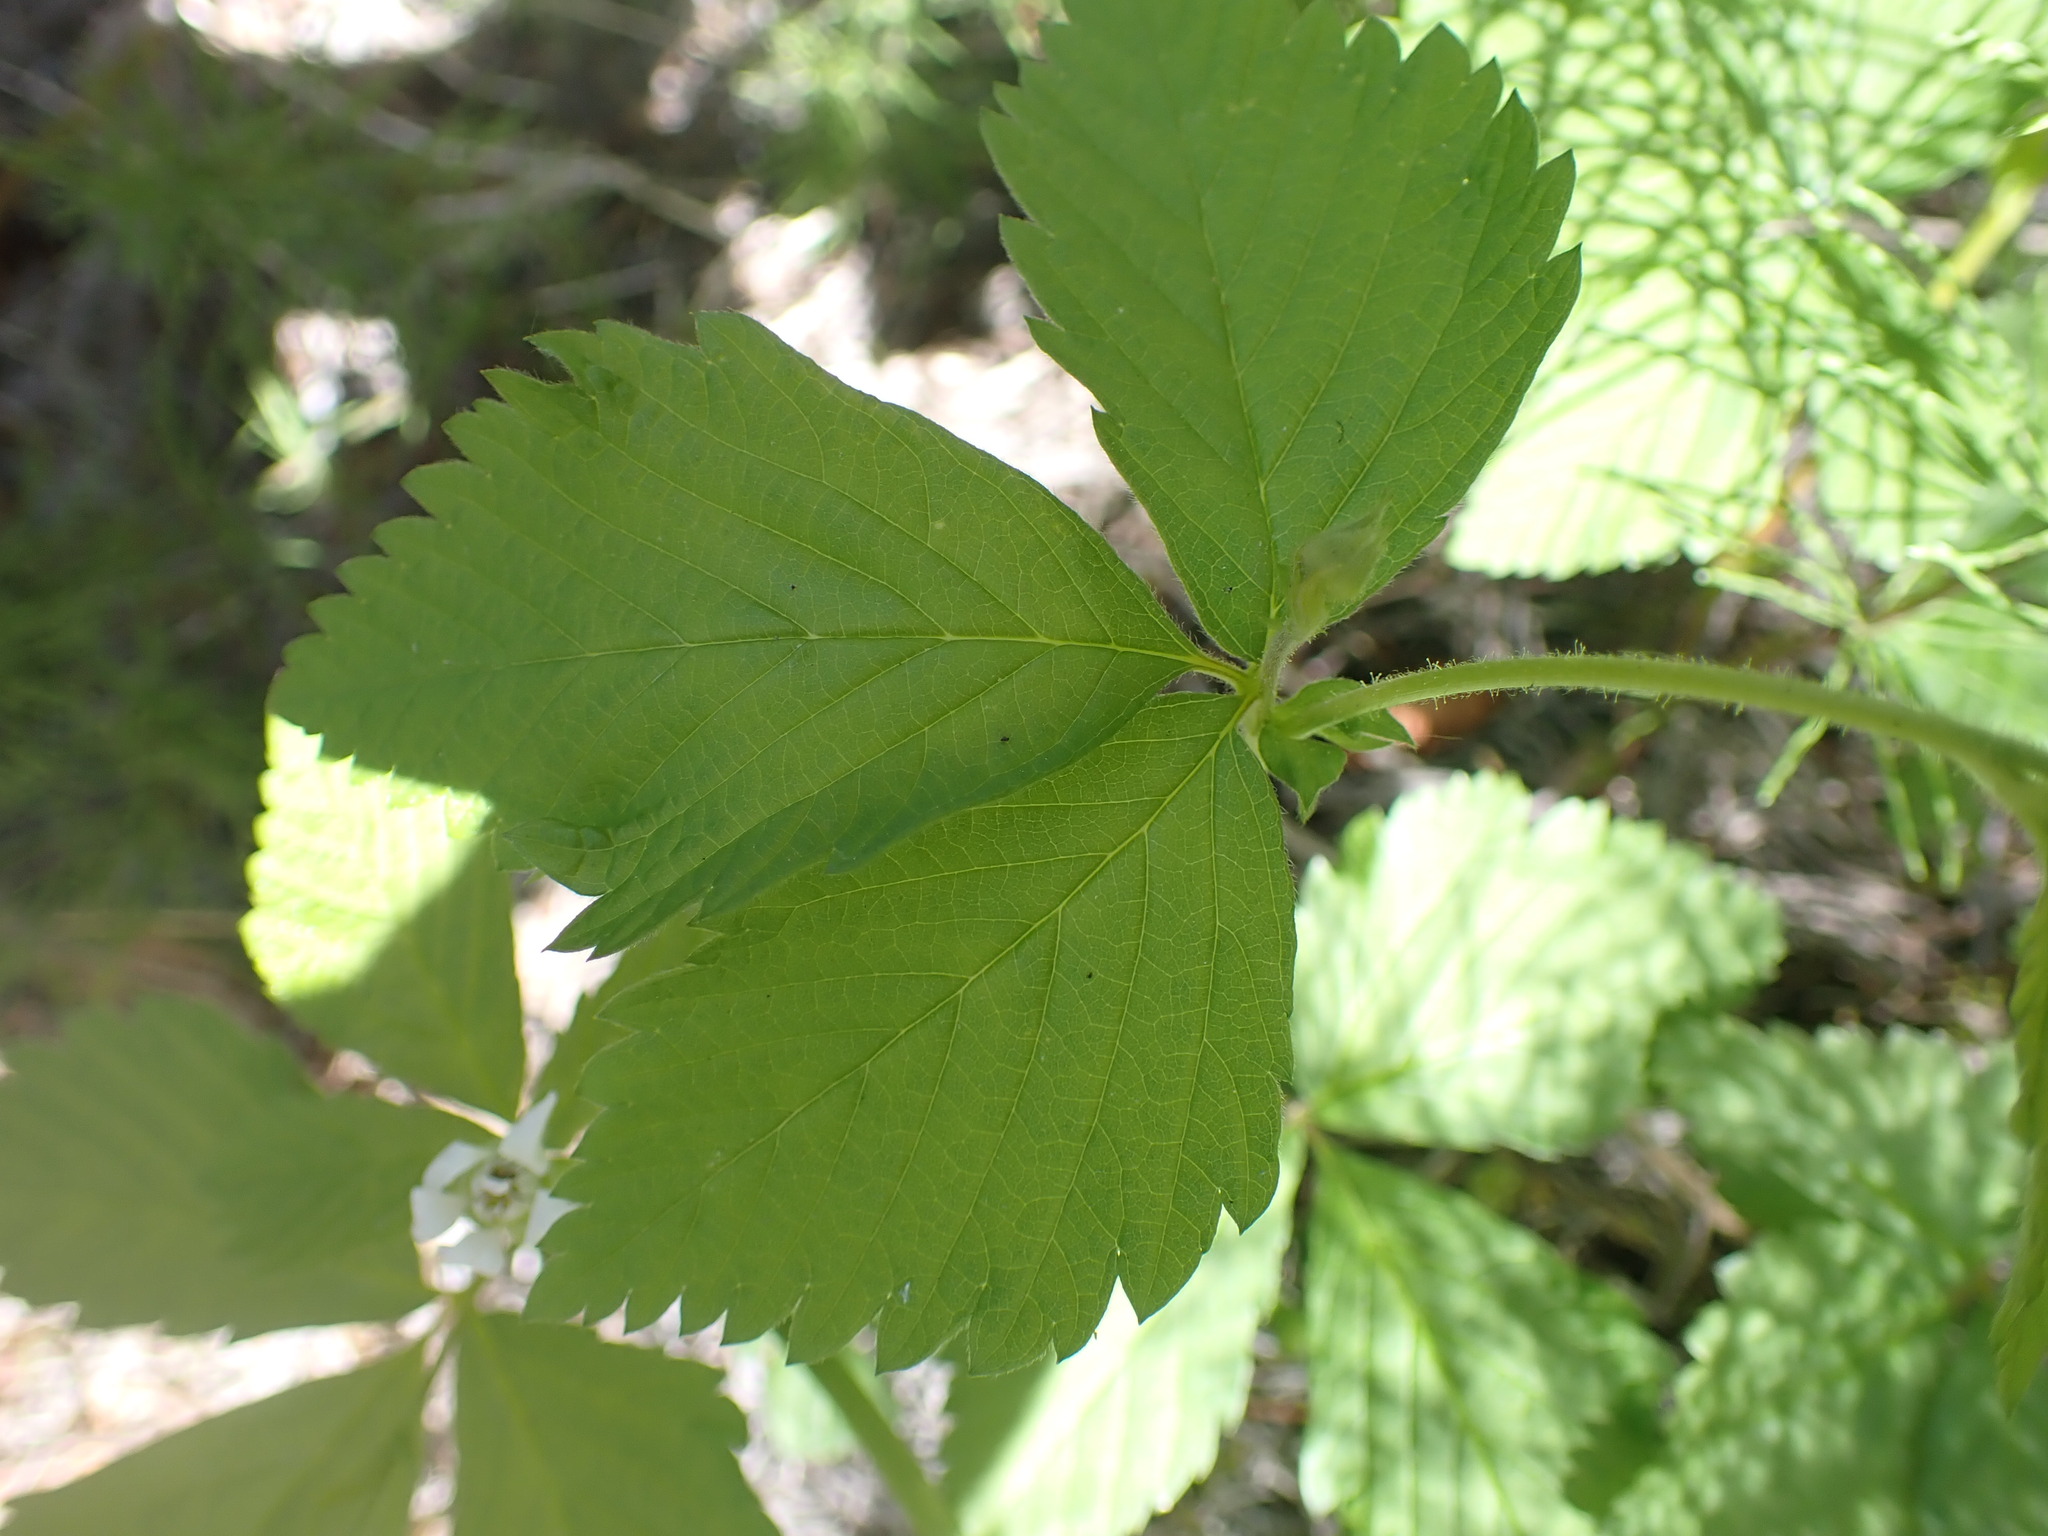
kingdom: Plantae
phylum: Tracheophyta
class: Magnoliopsida
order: Rosales
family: Rosaceae
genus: Rubus
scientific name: Rubus pubescens
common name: Dwarf raspberry
